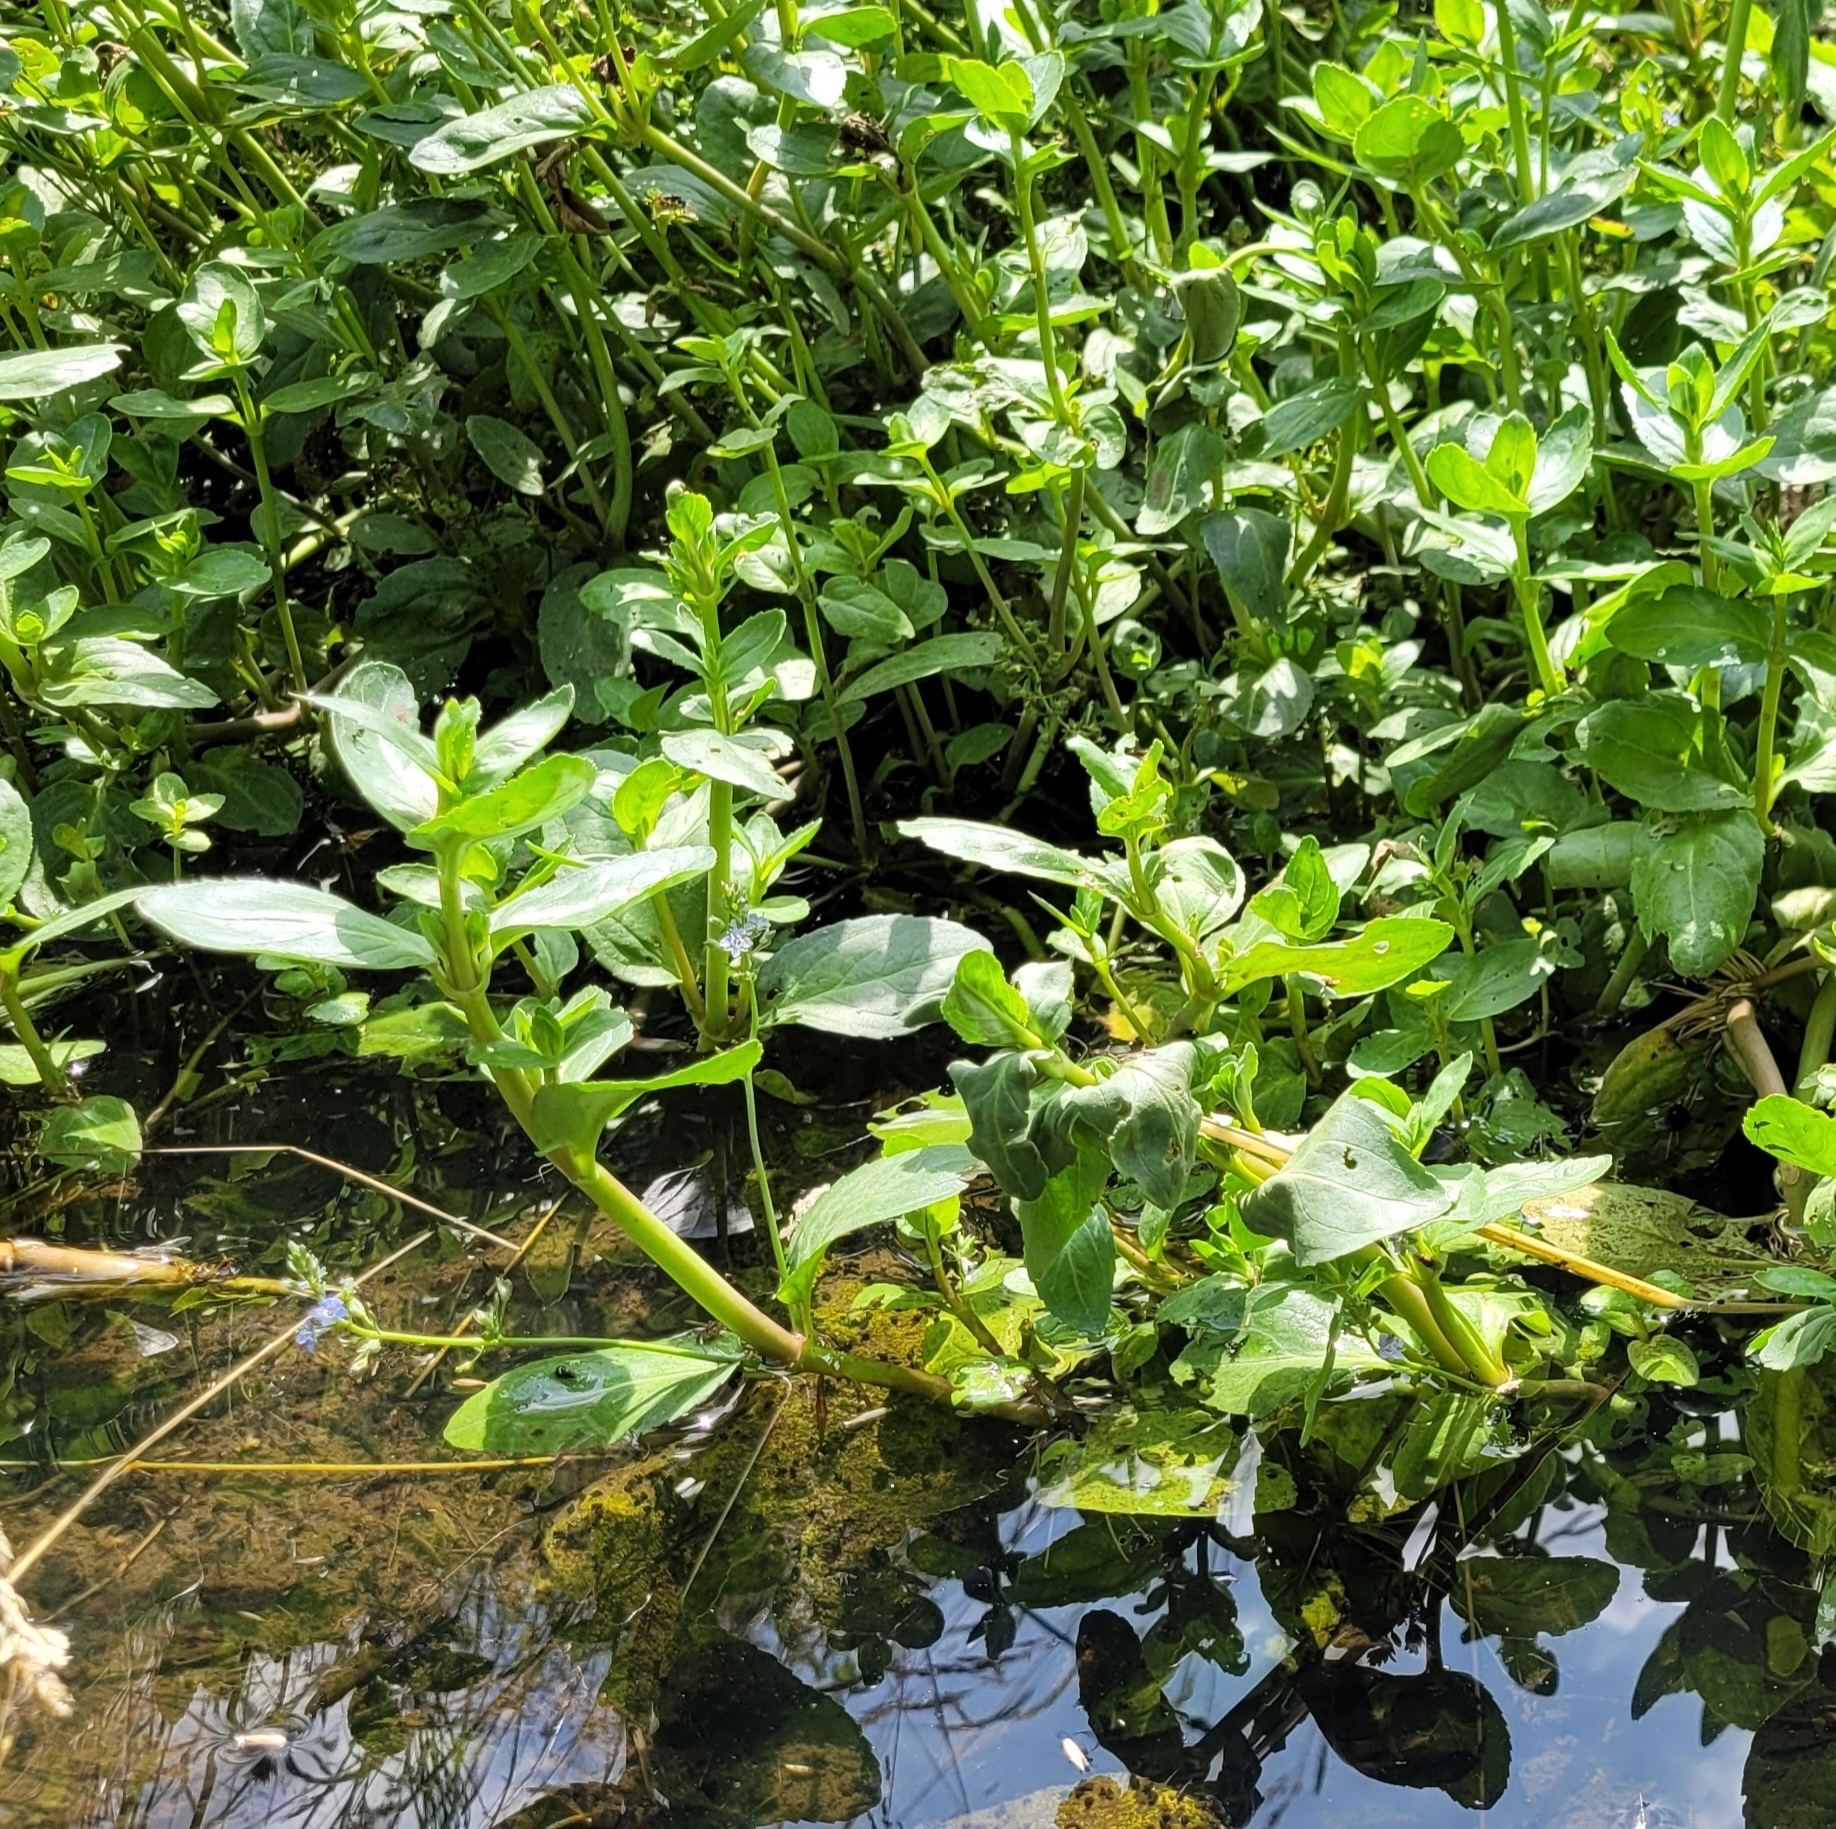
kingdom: Plantae
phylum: Tracheophyta
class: Magnoliopsida
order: Lamiales
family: Plantaginaceae
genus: Veronica
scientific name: Veronica beccabunga
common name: Brooklime
